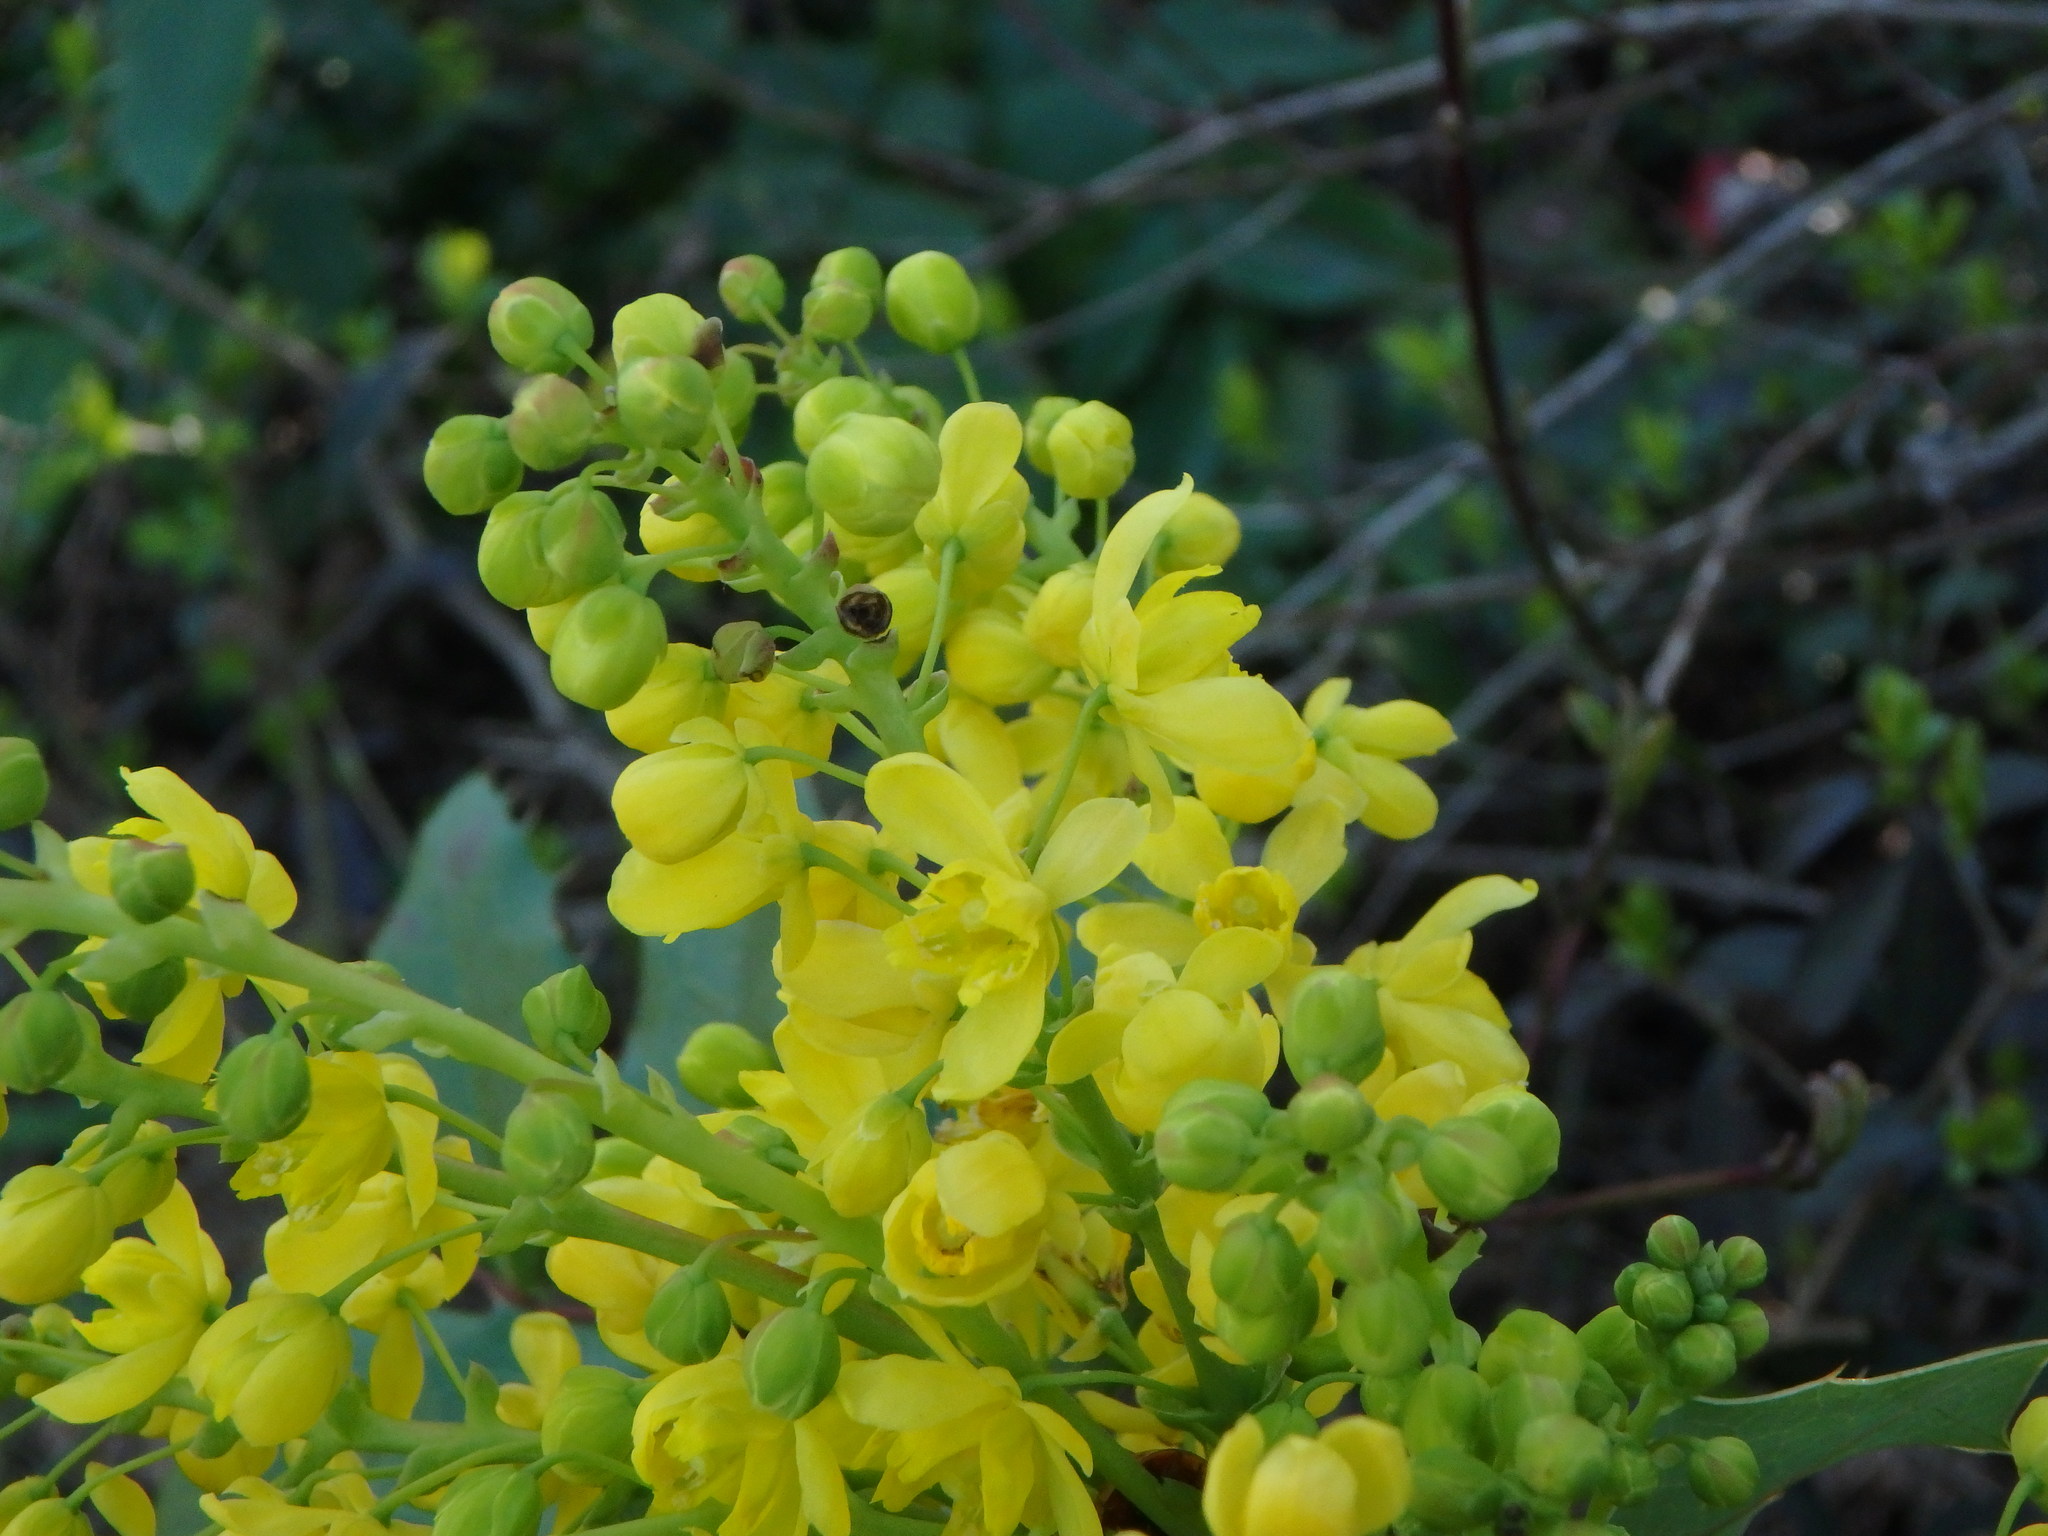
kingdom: Plantae
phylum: Tracheophyta
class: Magnoliopsida
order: Ranunculales
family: Berberidaceae
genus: Mahonia
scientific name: Mahonia aquifolium
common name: Oregon-grape
